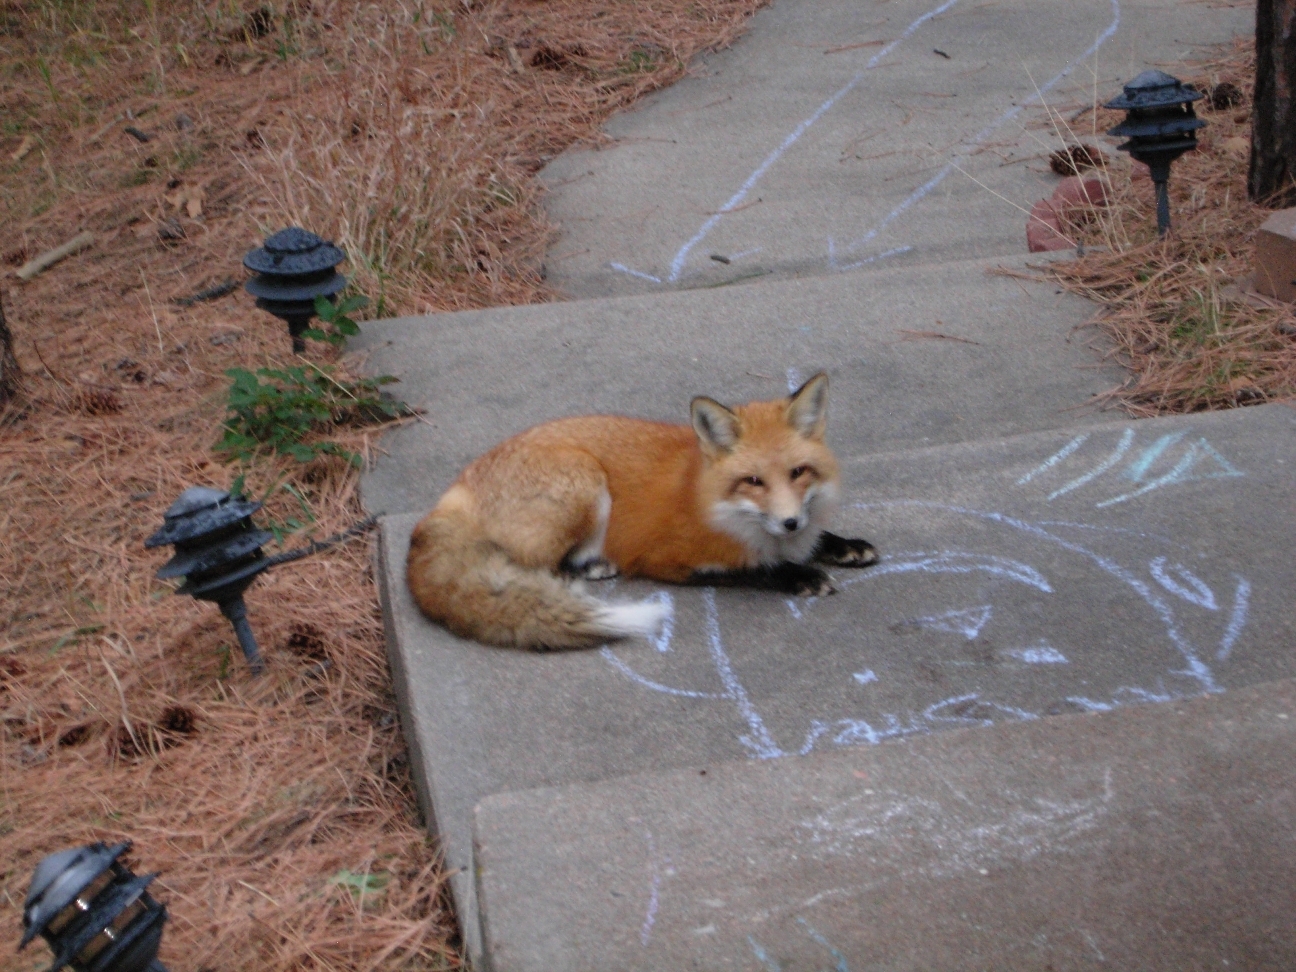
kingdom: Animalia
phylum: Chordata
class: Mammalia
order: Carnivora
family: Canidae
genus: Vulpes
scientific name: Vulpes vulpes
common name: Red fox
